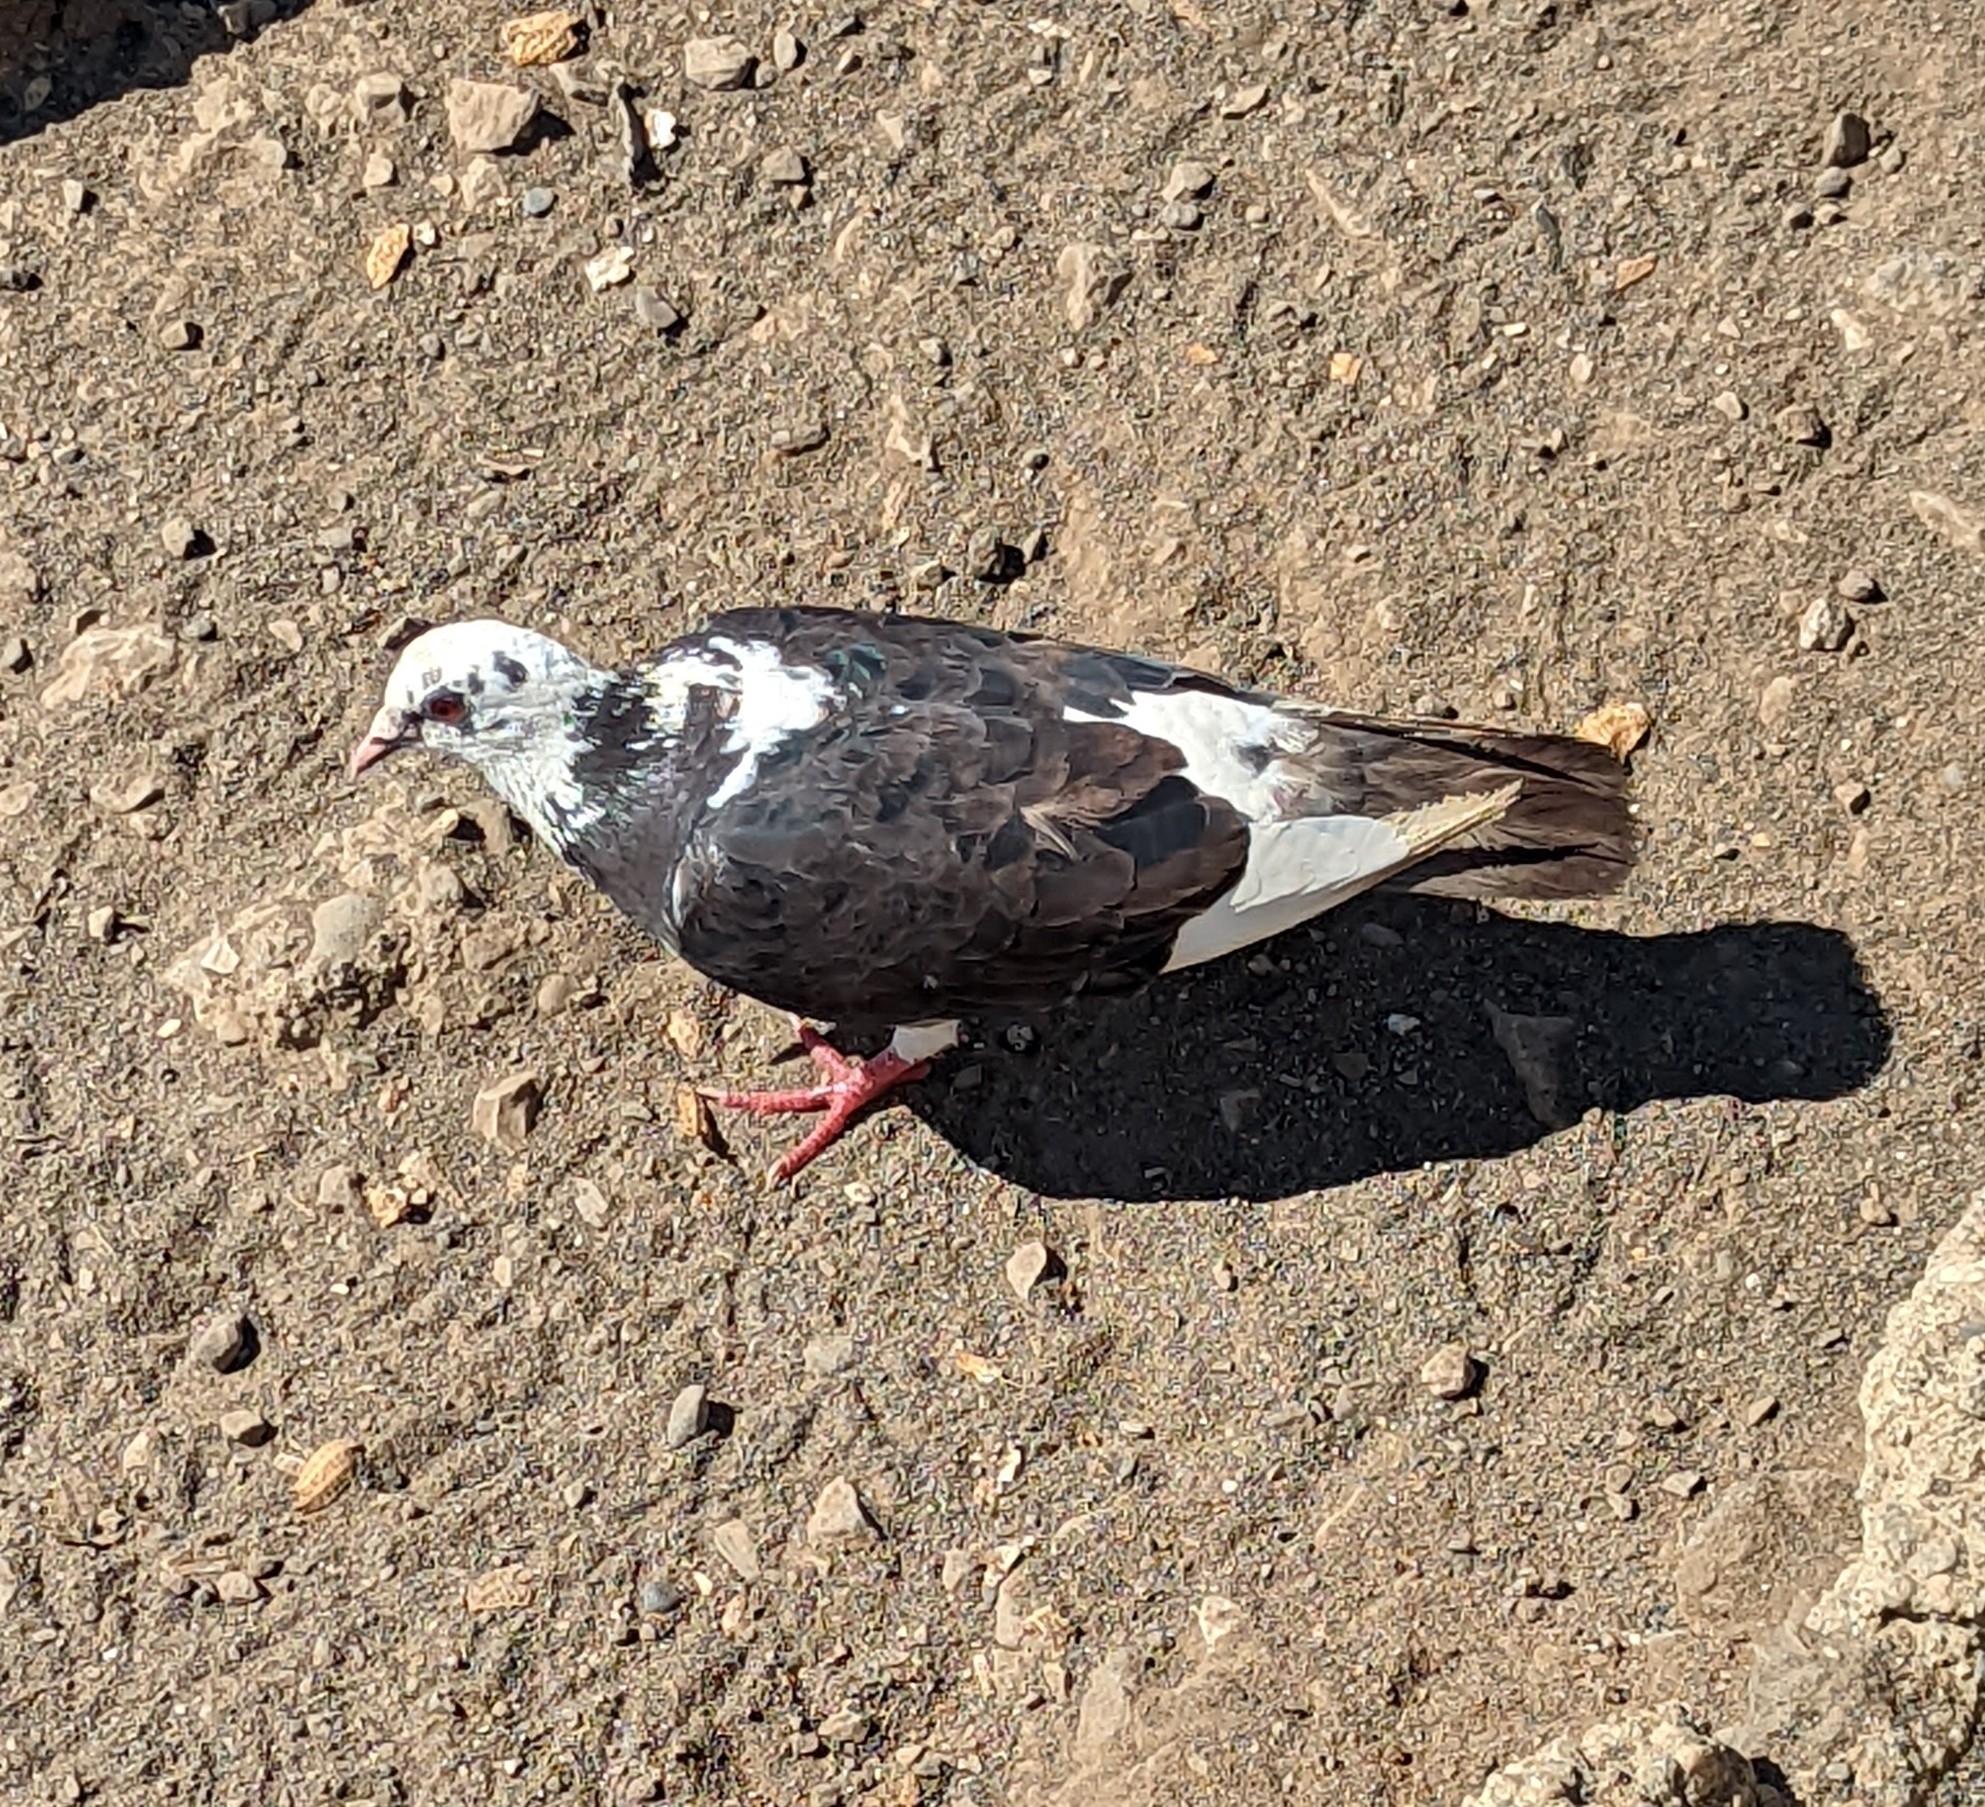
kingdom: Animalia
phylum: Chordata
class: Aves
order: Columbiformes
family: Columbidae
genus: Columba
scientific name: Columba livia
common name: Rock pigeon
